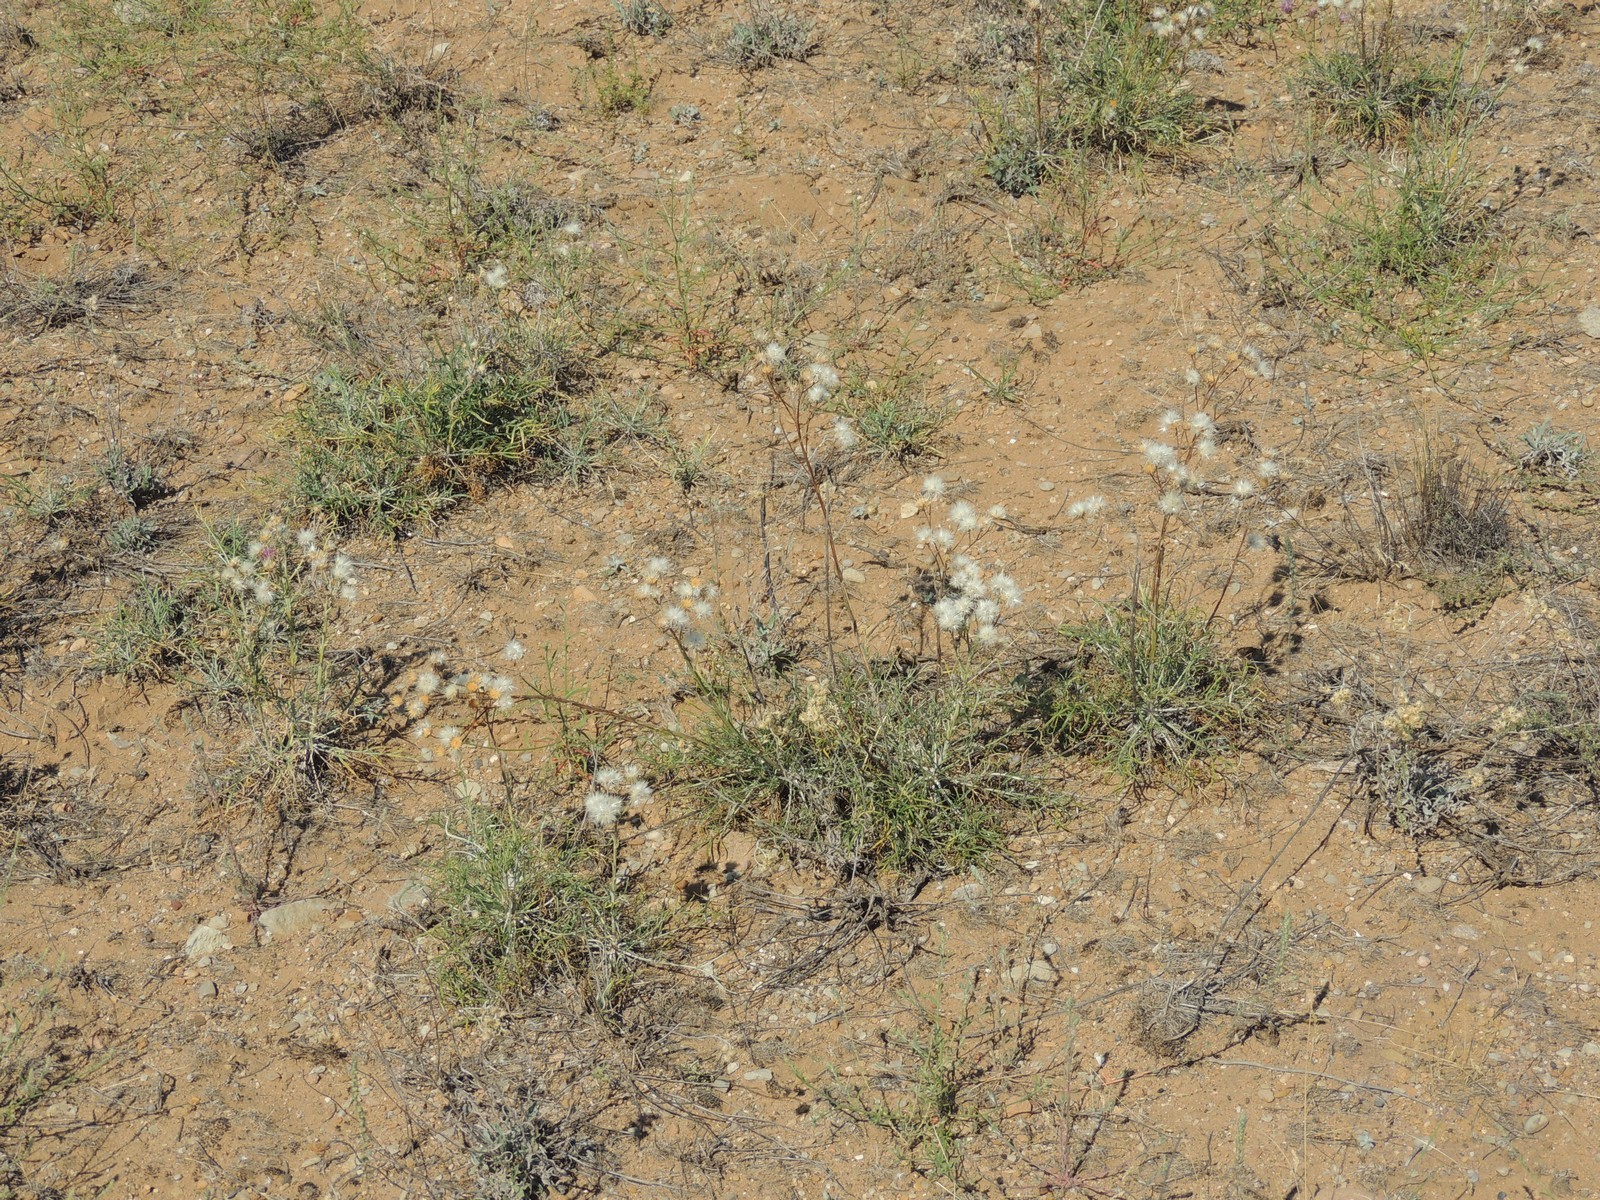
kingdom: Plantae
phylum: Tracheophyta
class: Magnoliopsida
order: Asterales
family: Asteraceae
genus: Jurinea
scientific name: Jurinea polyclonos
